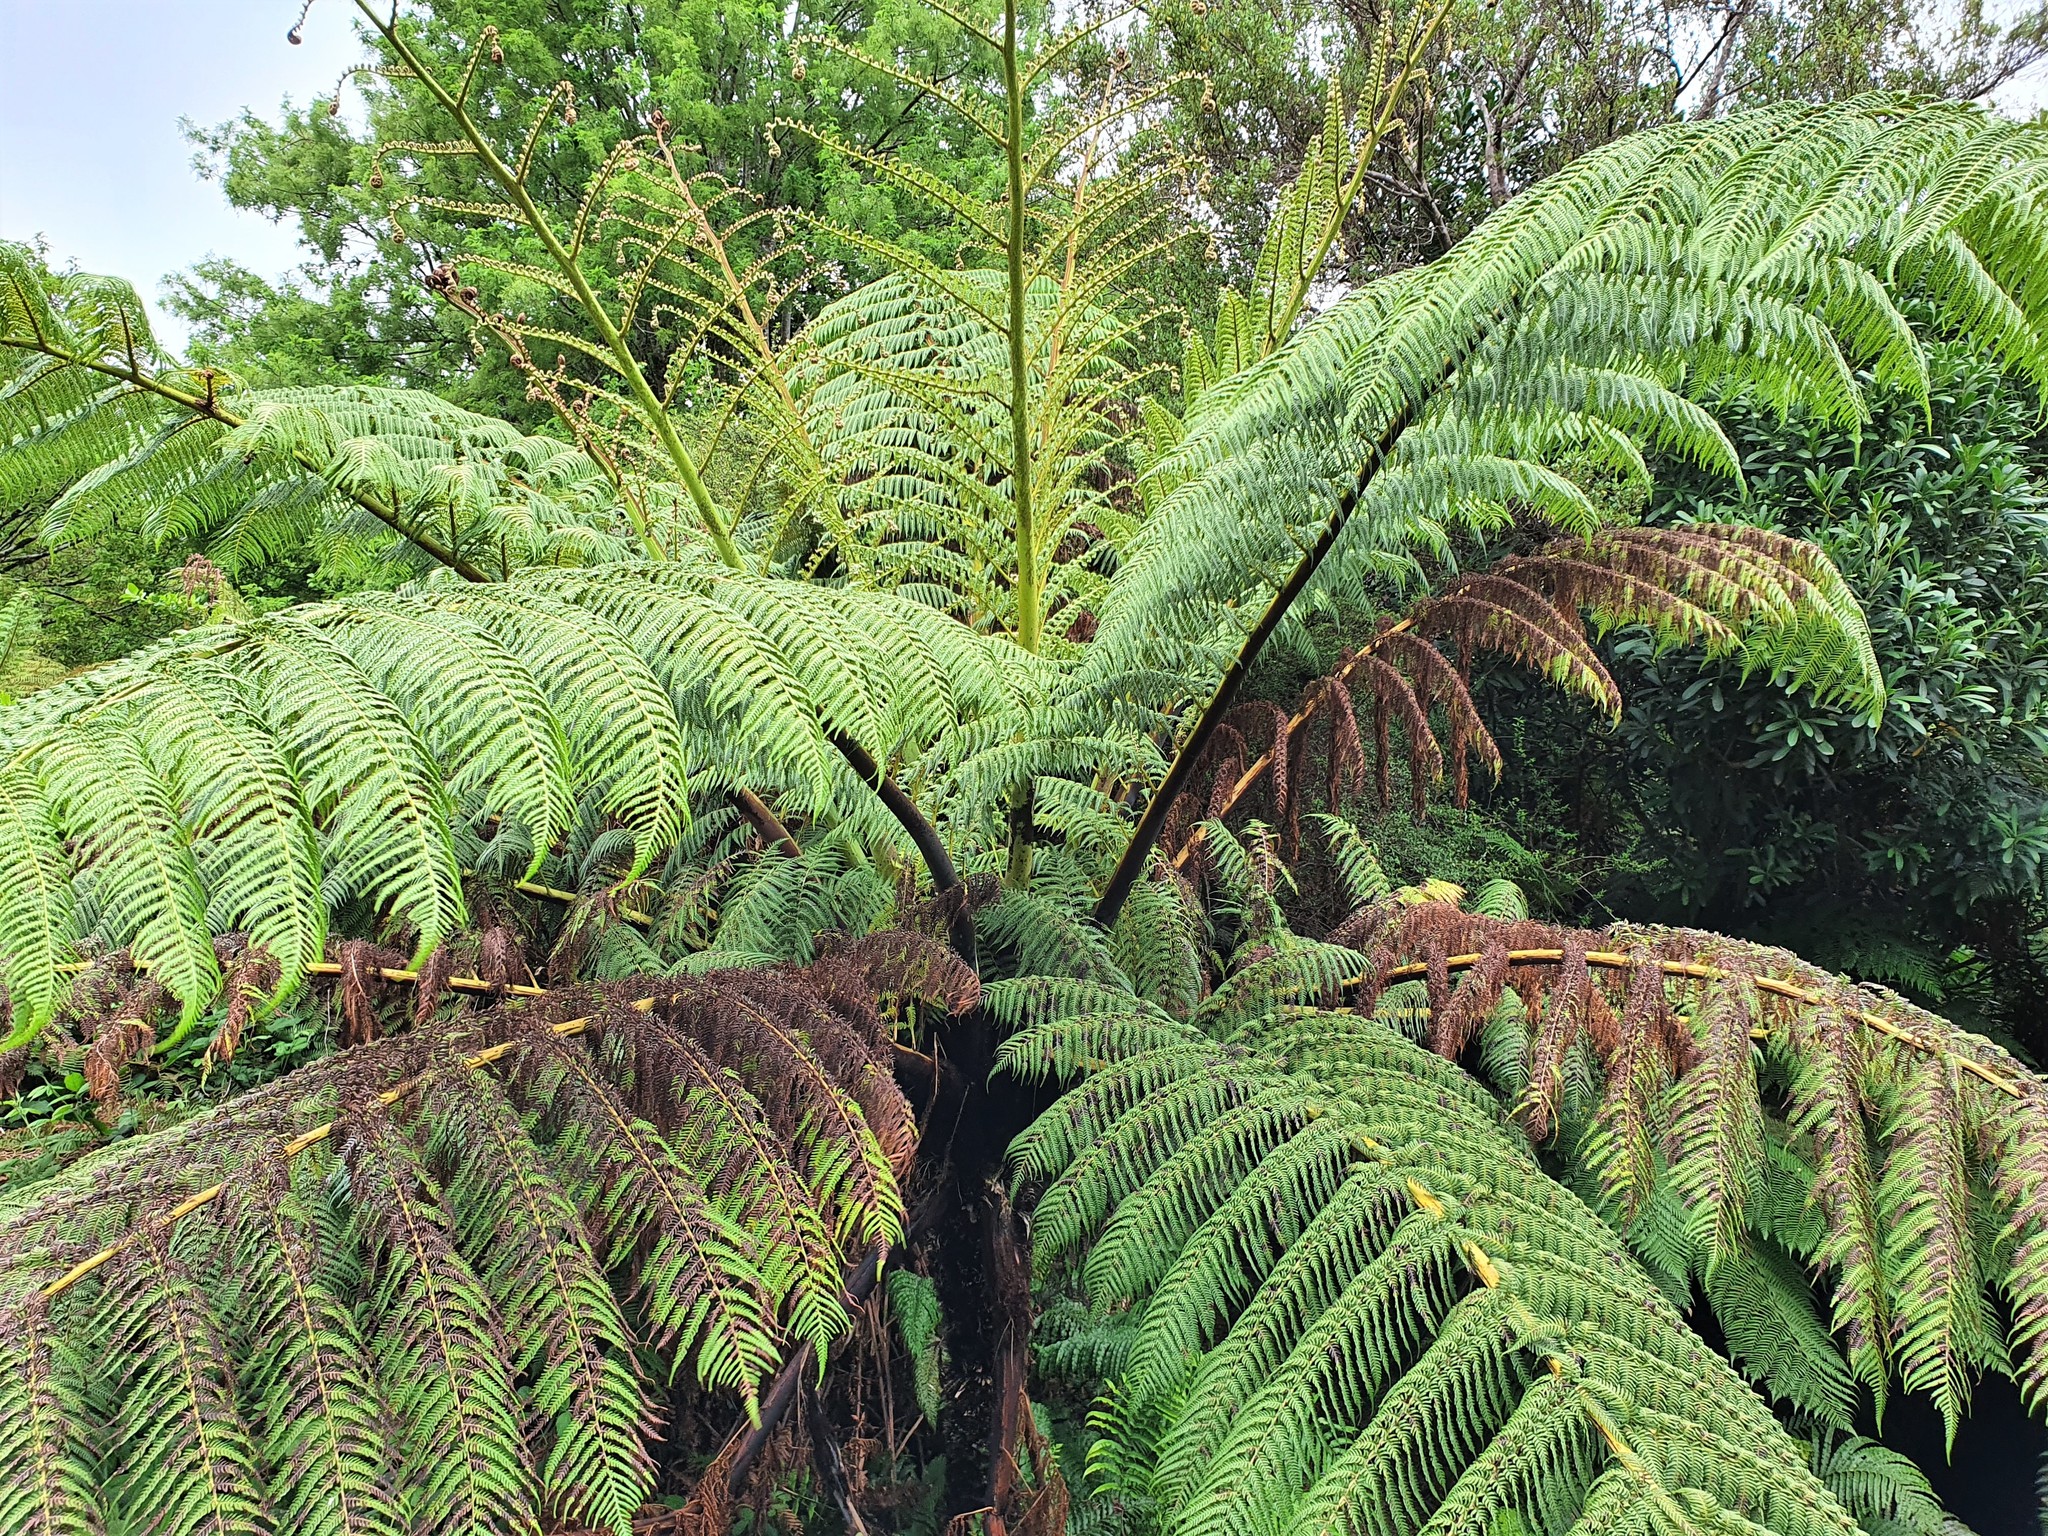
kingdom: Plantae
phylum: Tracheophyta
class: Polypodiopsida
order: Cyatheales
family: Cyatheaceae
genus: Sphaeropteris
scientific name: Sphaeropteris medullaris
